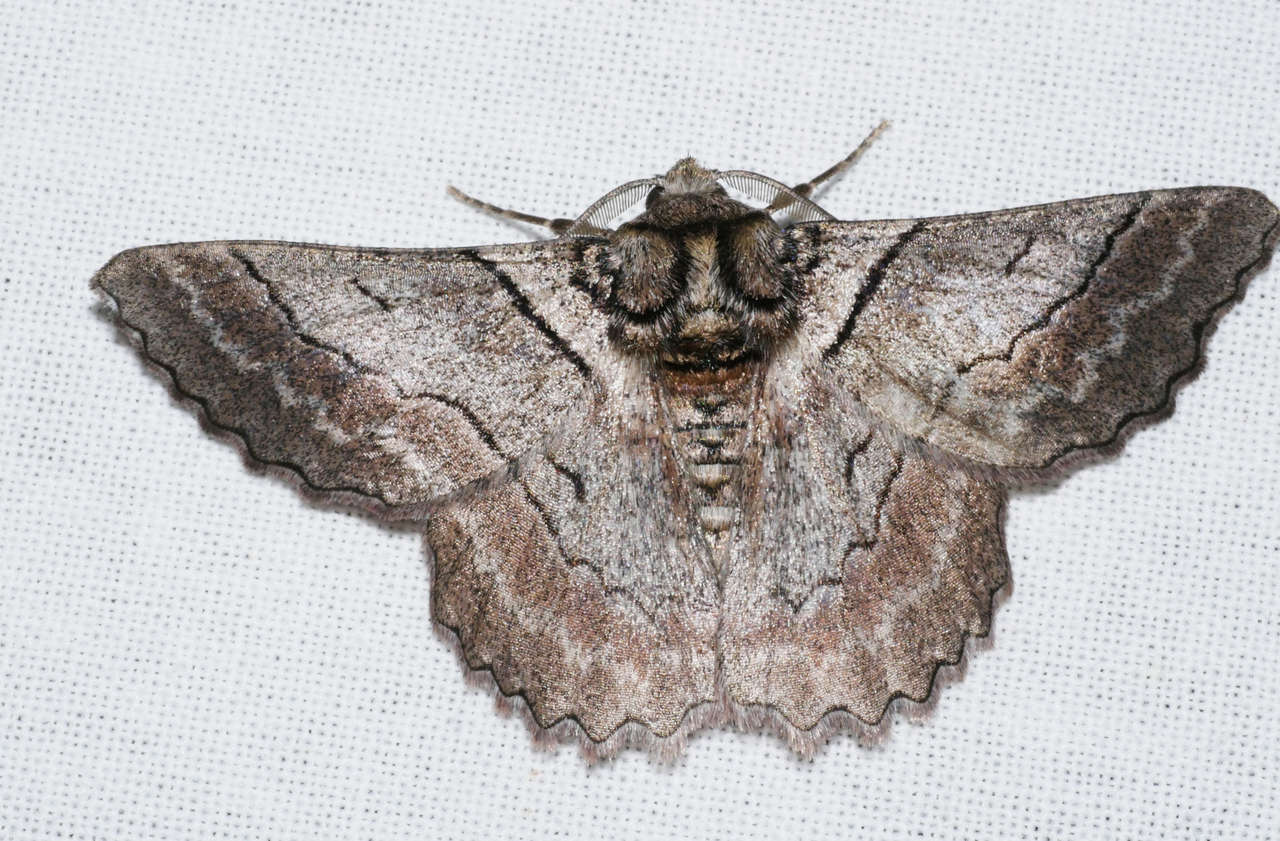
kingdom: Animalia
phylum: Arthropoda
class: Insecta
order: Lepidoptera
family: Geometridae
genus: Hypobapta
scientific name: Hypobapta tachyhalotaria
